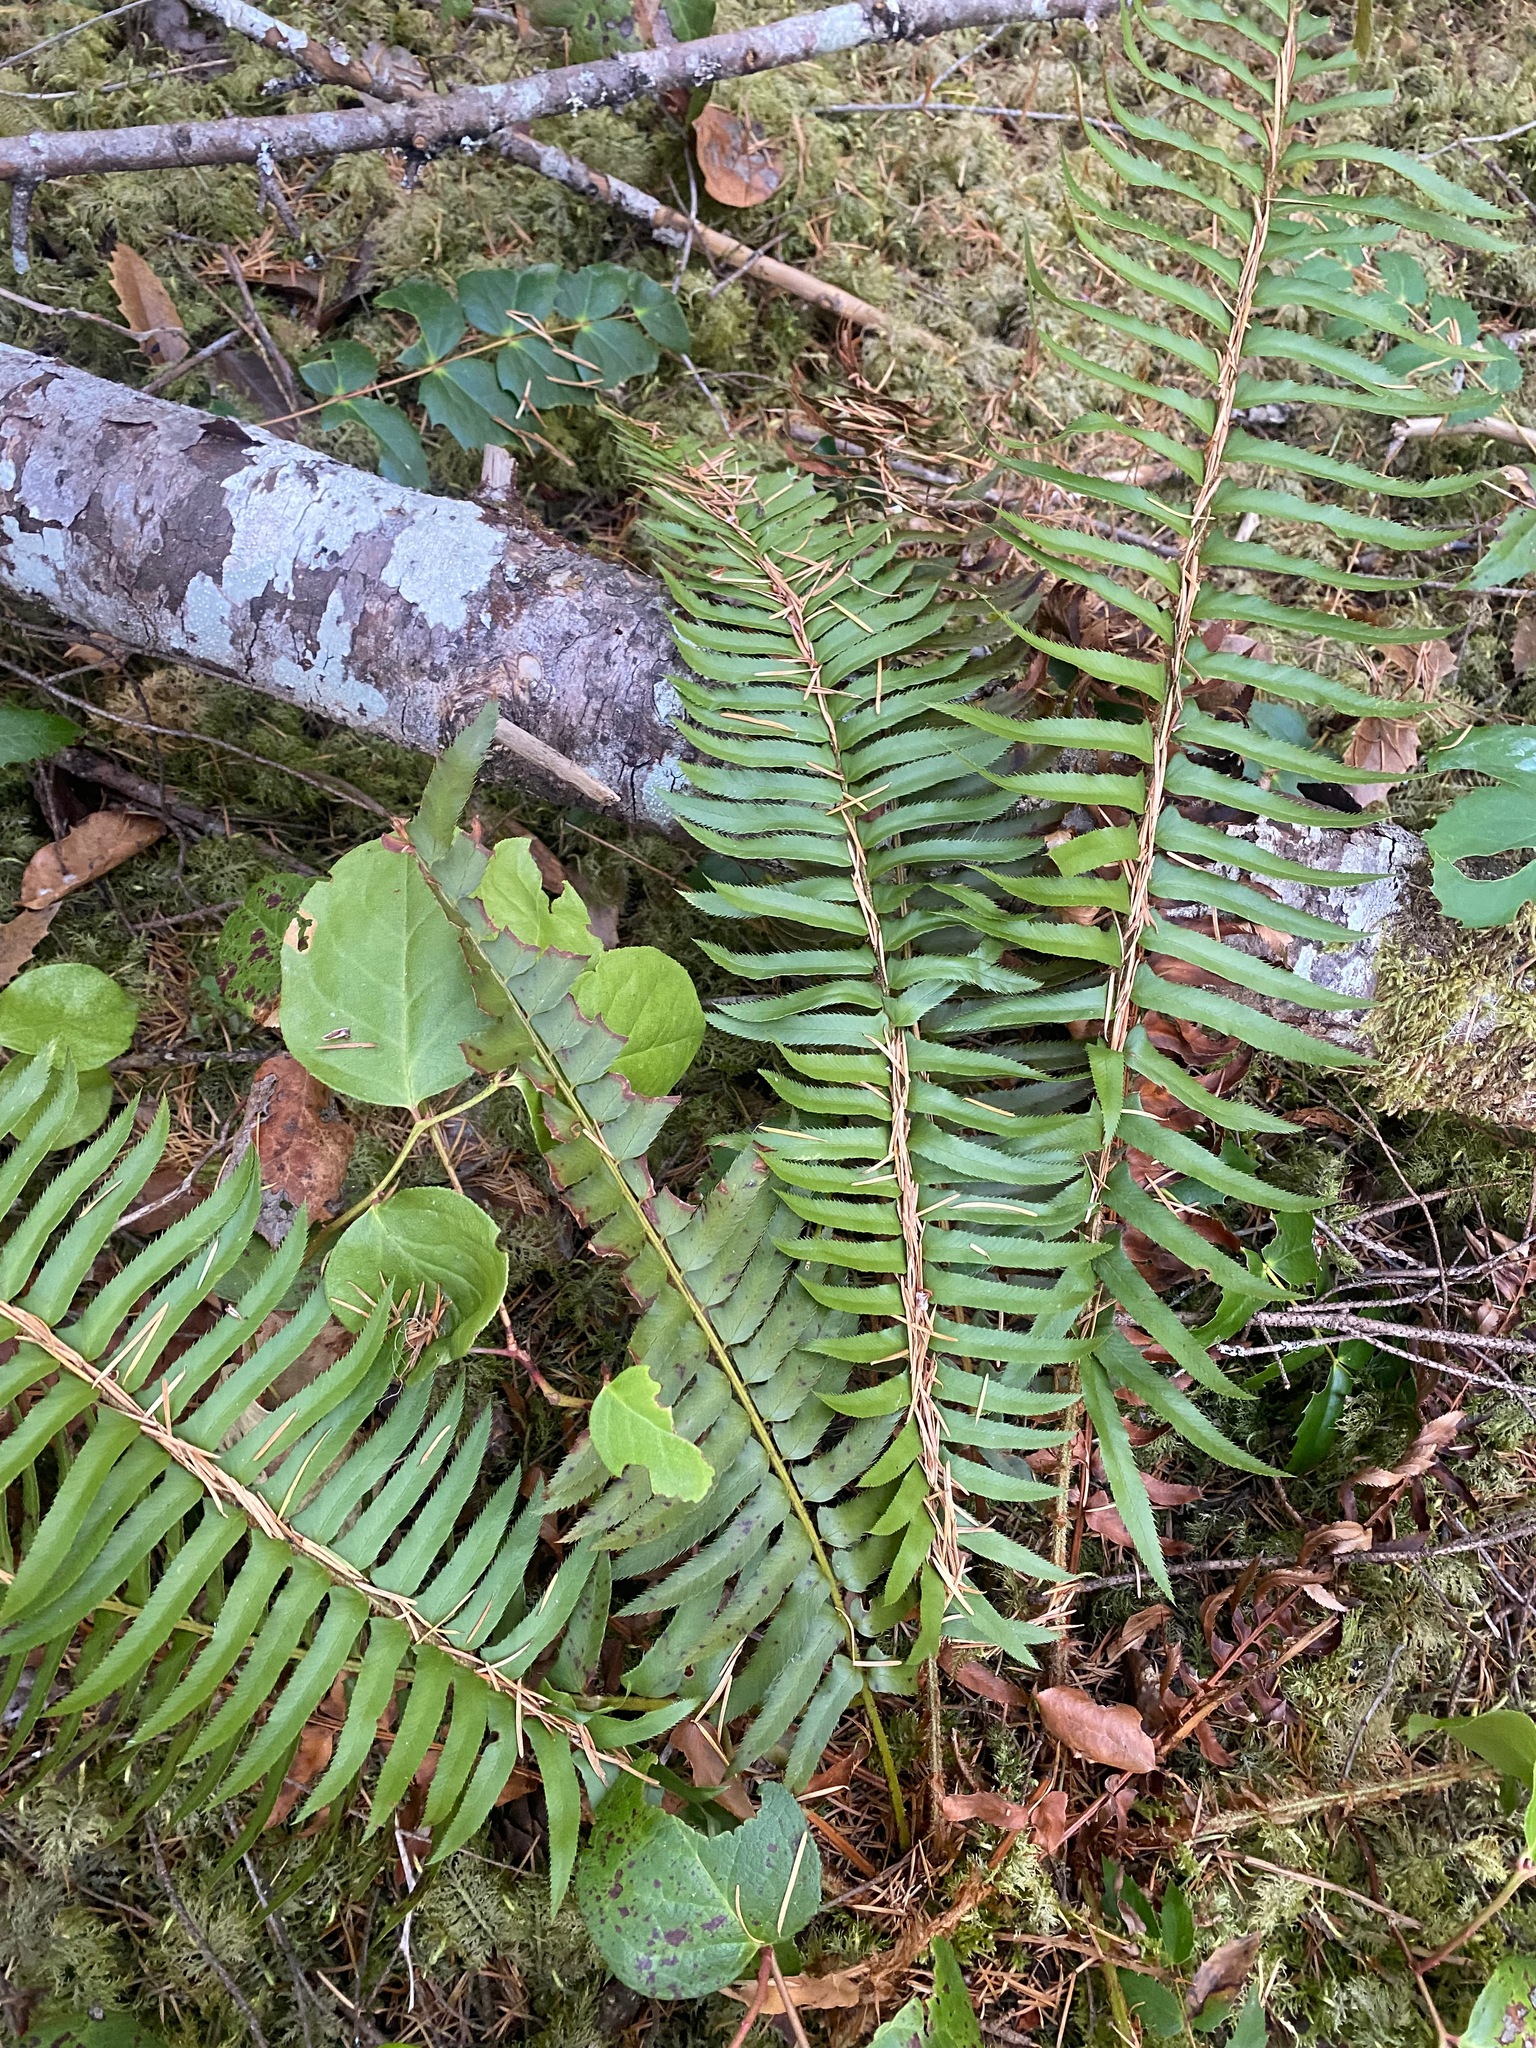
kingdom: Plantae
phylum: Tracheophyta
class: Polypodiopsida
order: Polypodiales
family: Dryopteridaceae
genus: Polystichum
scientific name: Polystichum munitum
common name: Western sword-fern
